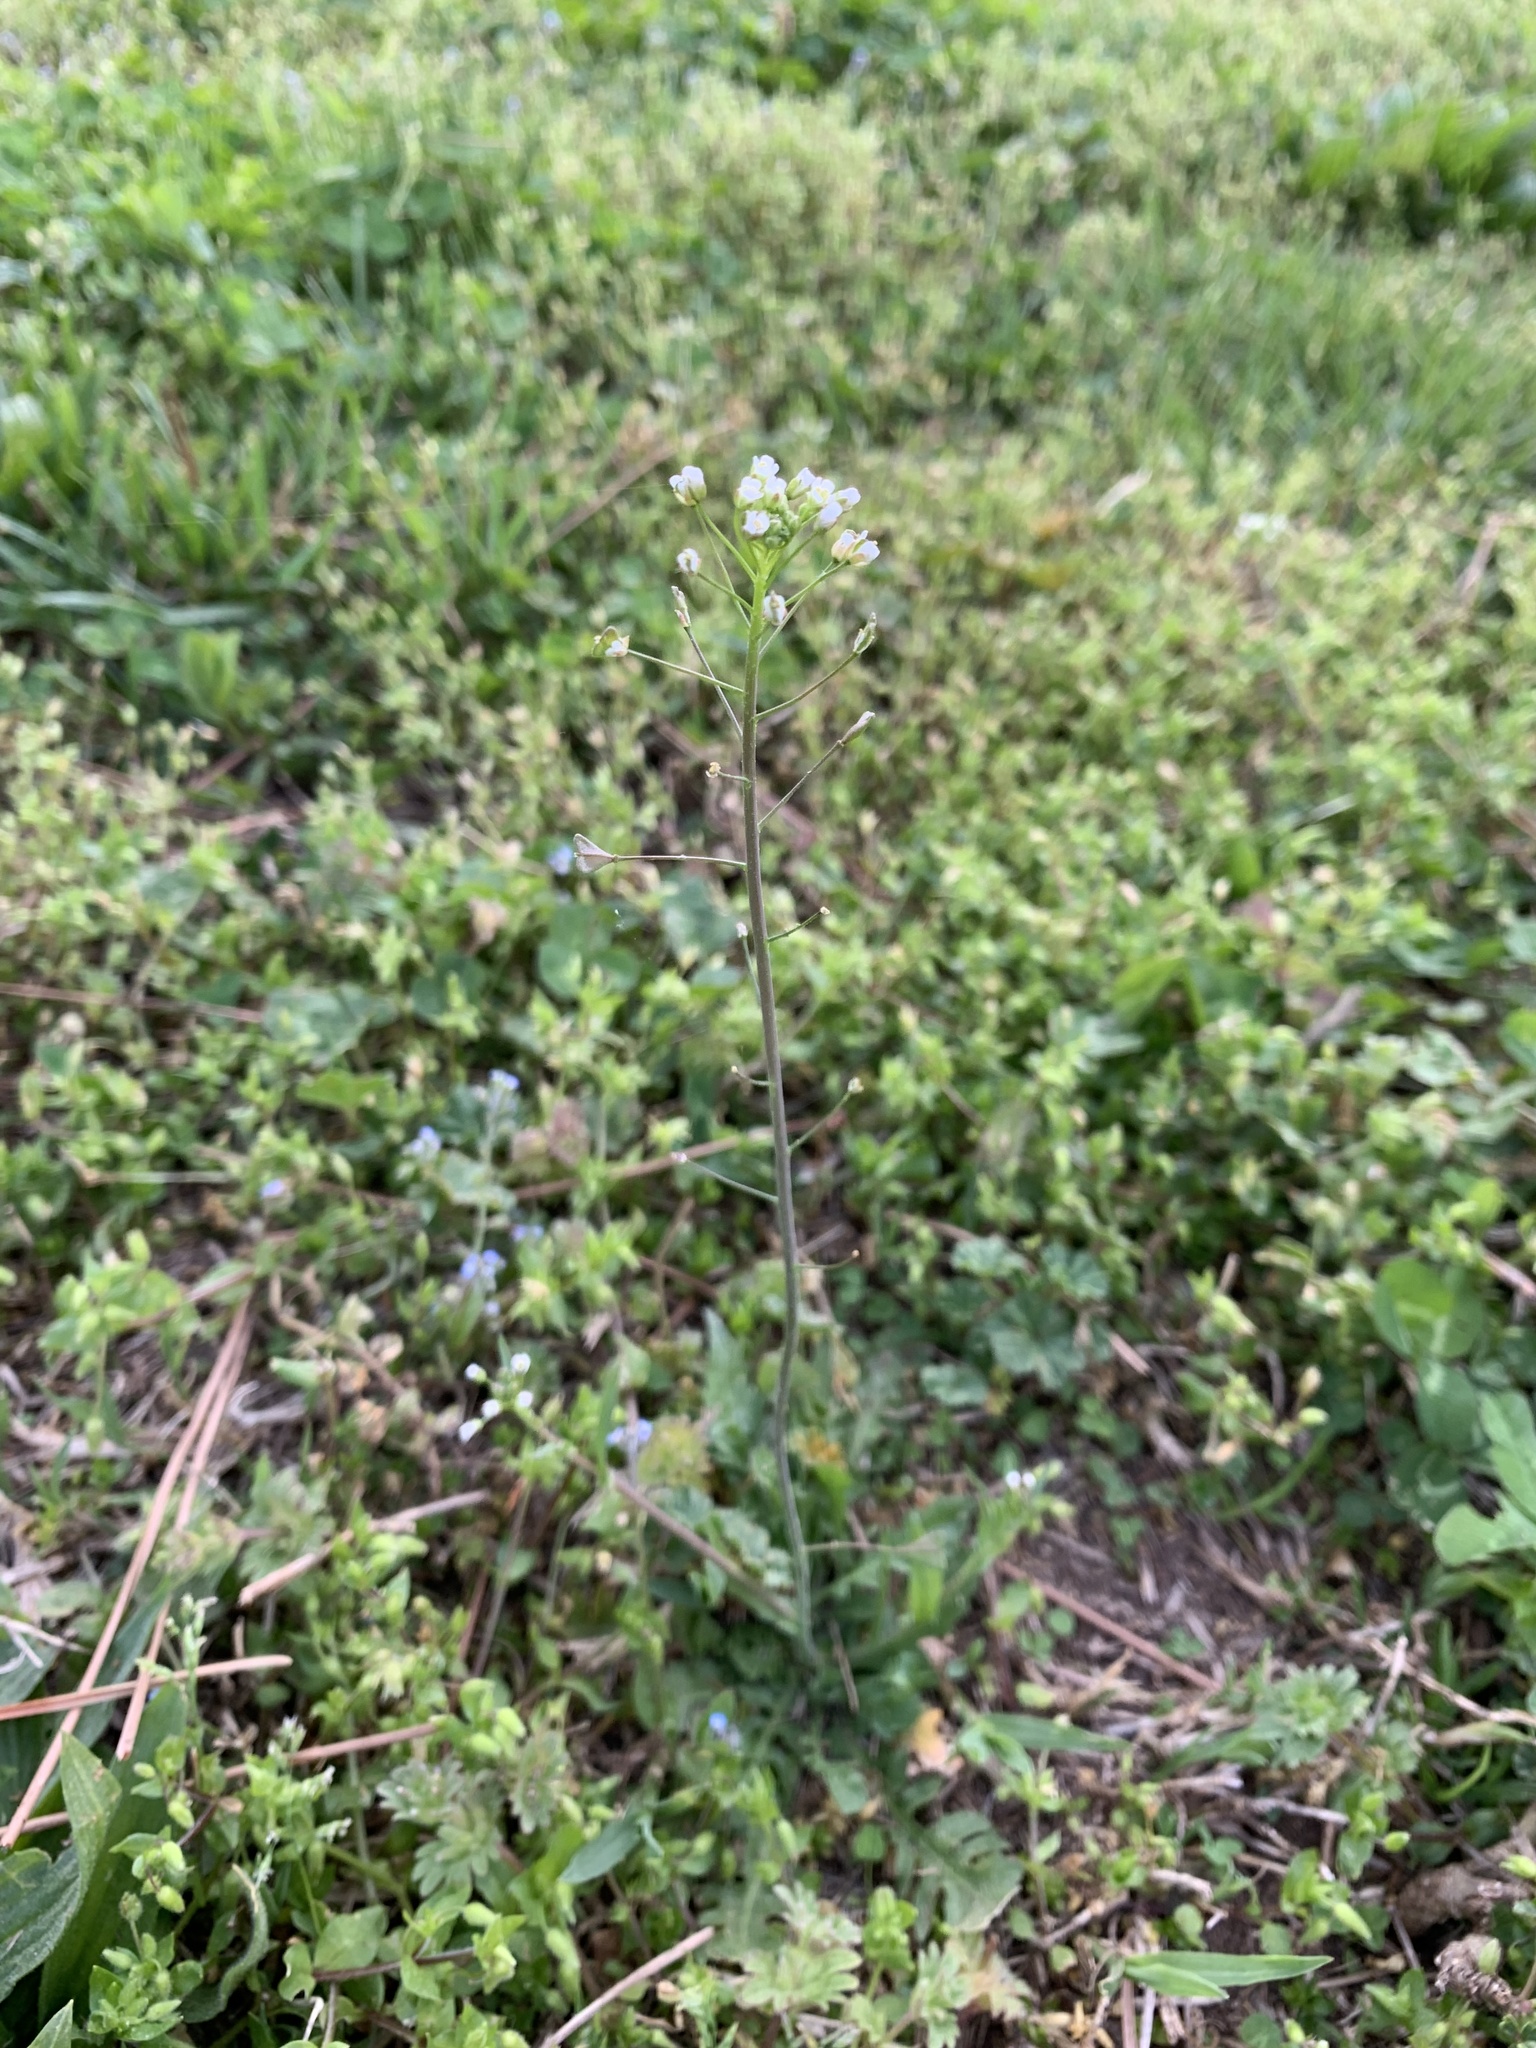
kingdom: Plantae
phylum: Tracheophyta
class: Magnoliopsida
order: Brassicales
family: Brassicaceae
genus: Capsella
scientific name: Capsella bursa-pastoris
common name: Shepherd's purse
